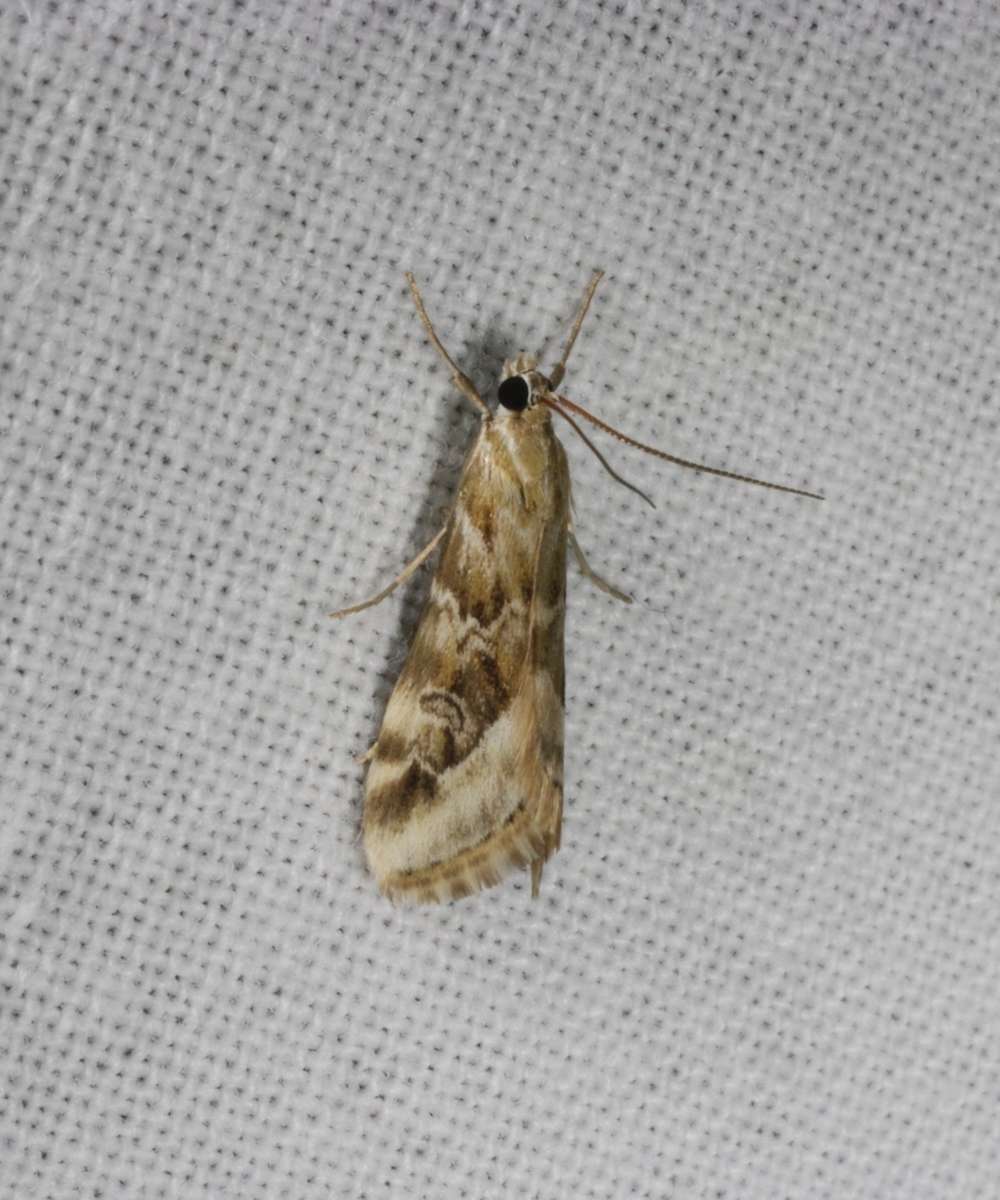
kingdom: Animalia
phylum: Arthropoda
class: Insecta
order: Lepidoptera
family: Crambidae
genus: Hellula
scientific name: Hellula hydralis
